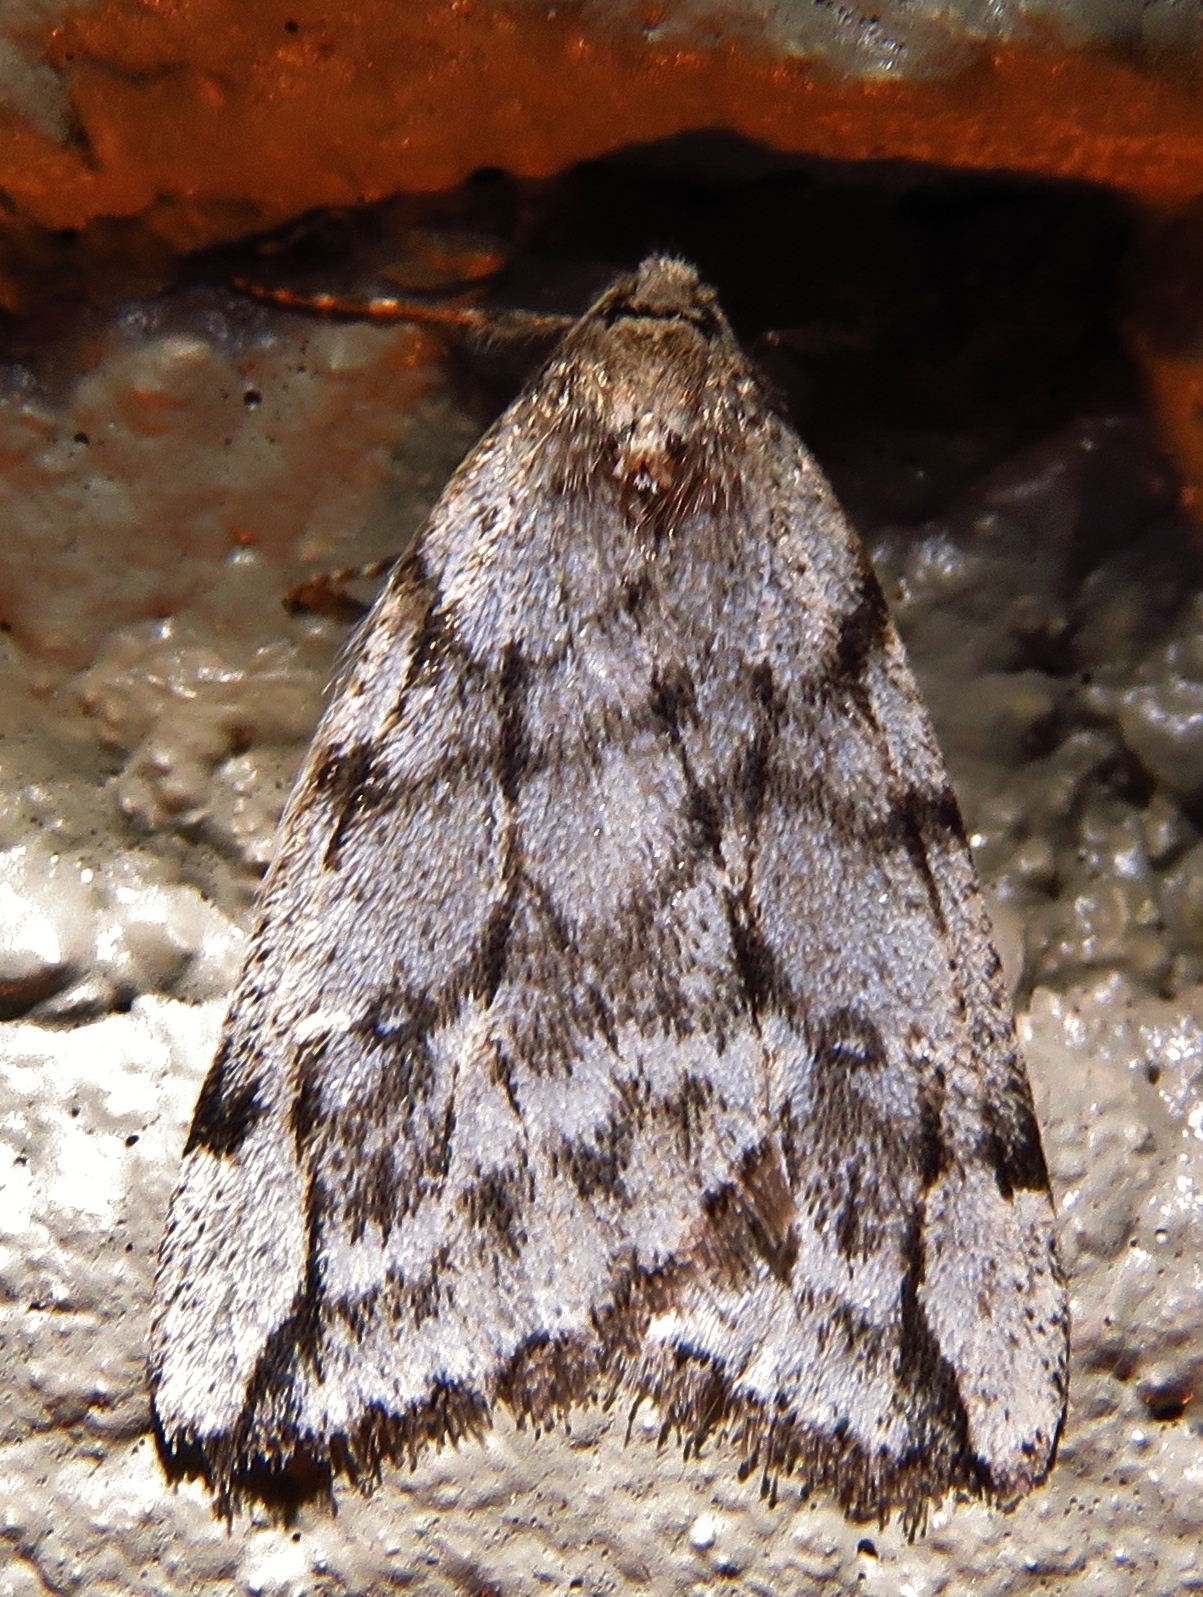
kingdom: Animalia
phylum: Arthropoda
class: Insecta
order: Lepidoptera
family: Geometridae
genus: Paleacrita
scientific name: Paleacrita vernata
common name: Spring cankerworm
